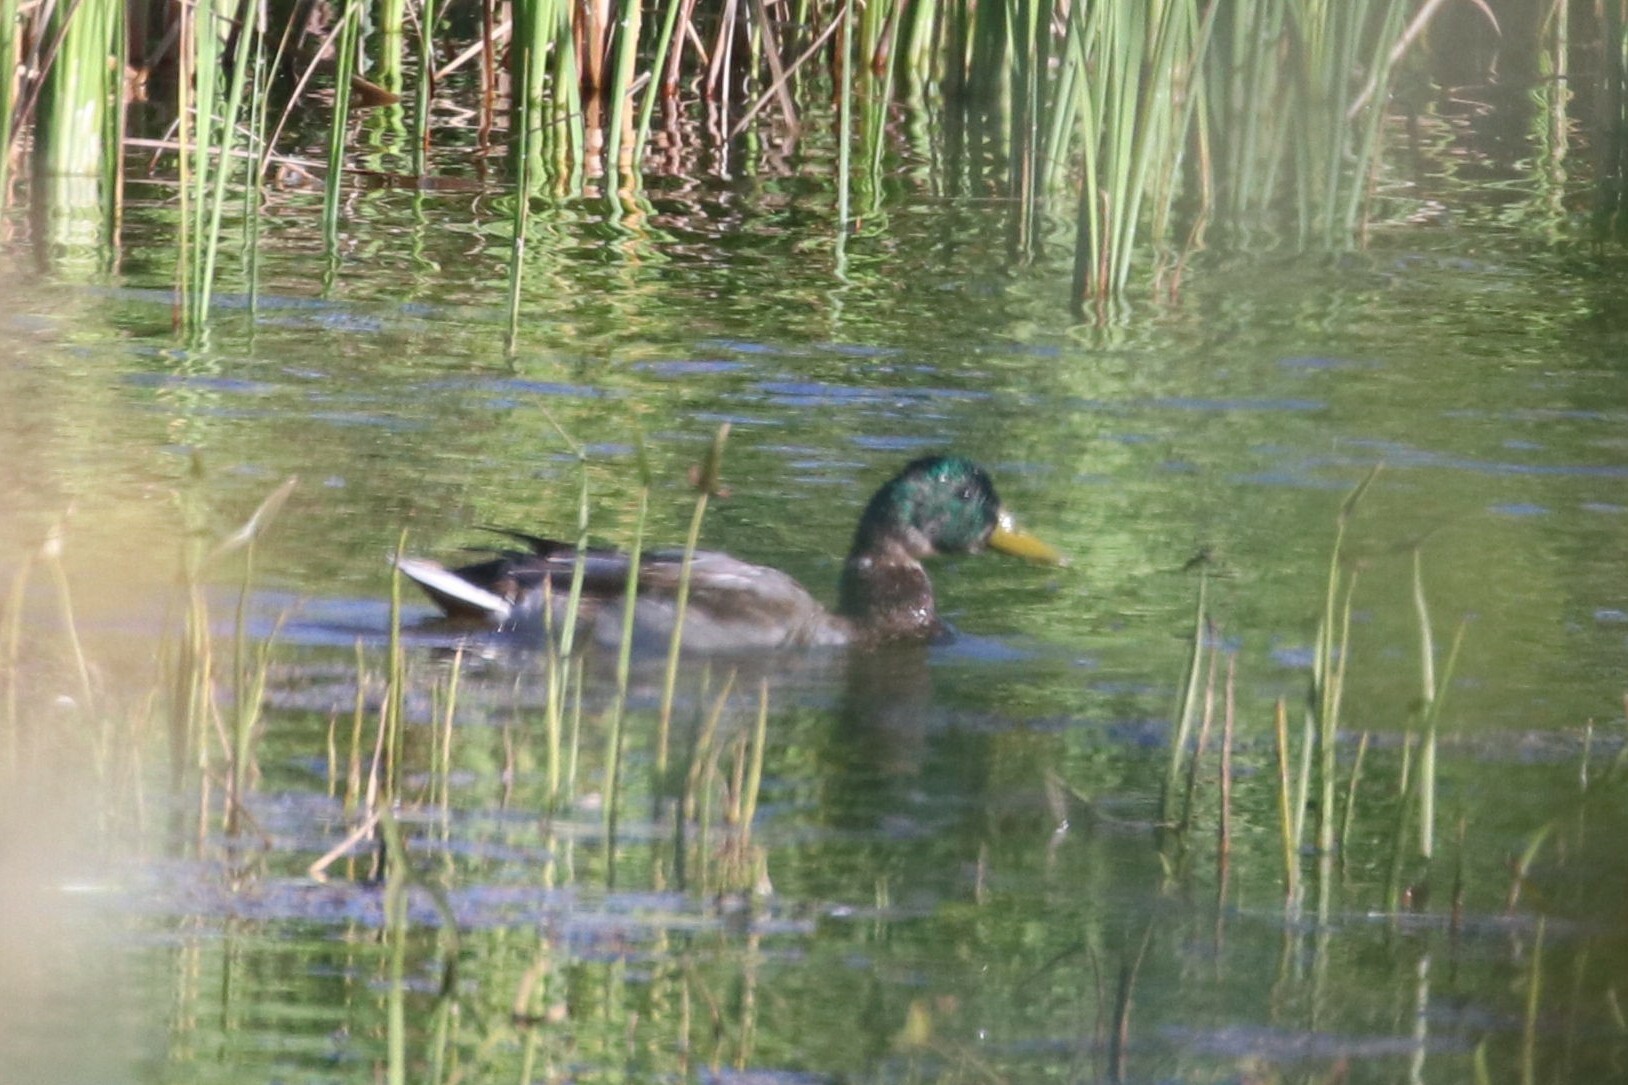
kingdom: Animalia
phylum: Chordata
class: Aves
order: Anseriformes
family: Anatidae
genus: Anas
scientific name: Anas platyrhynchos
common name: Mallard
